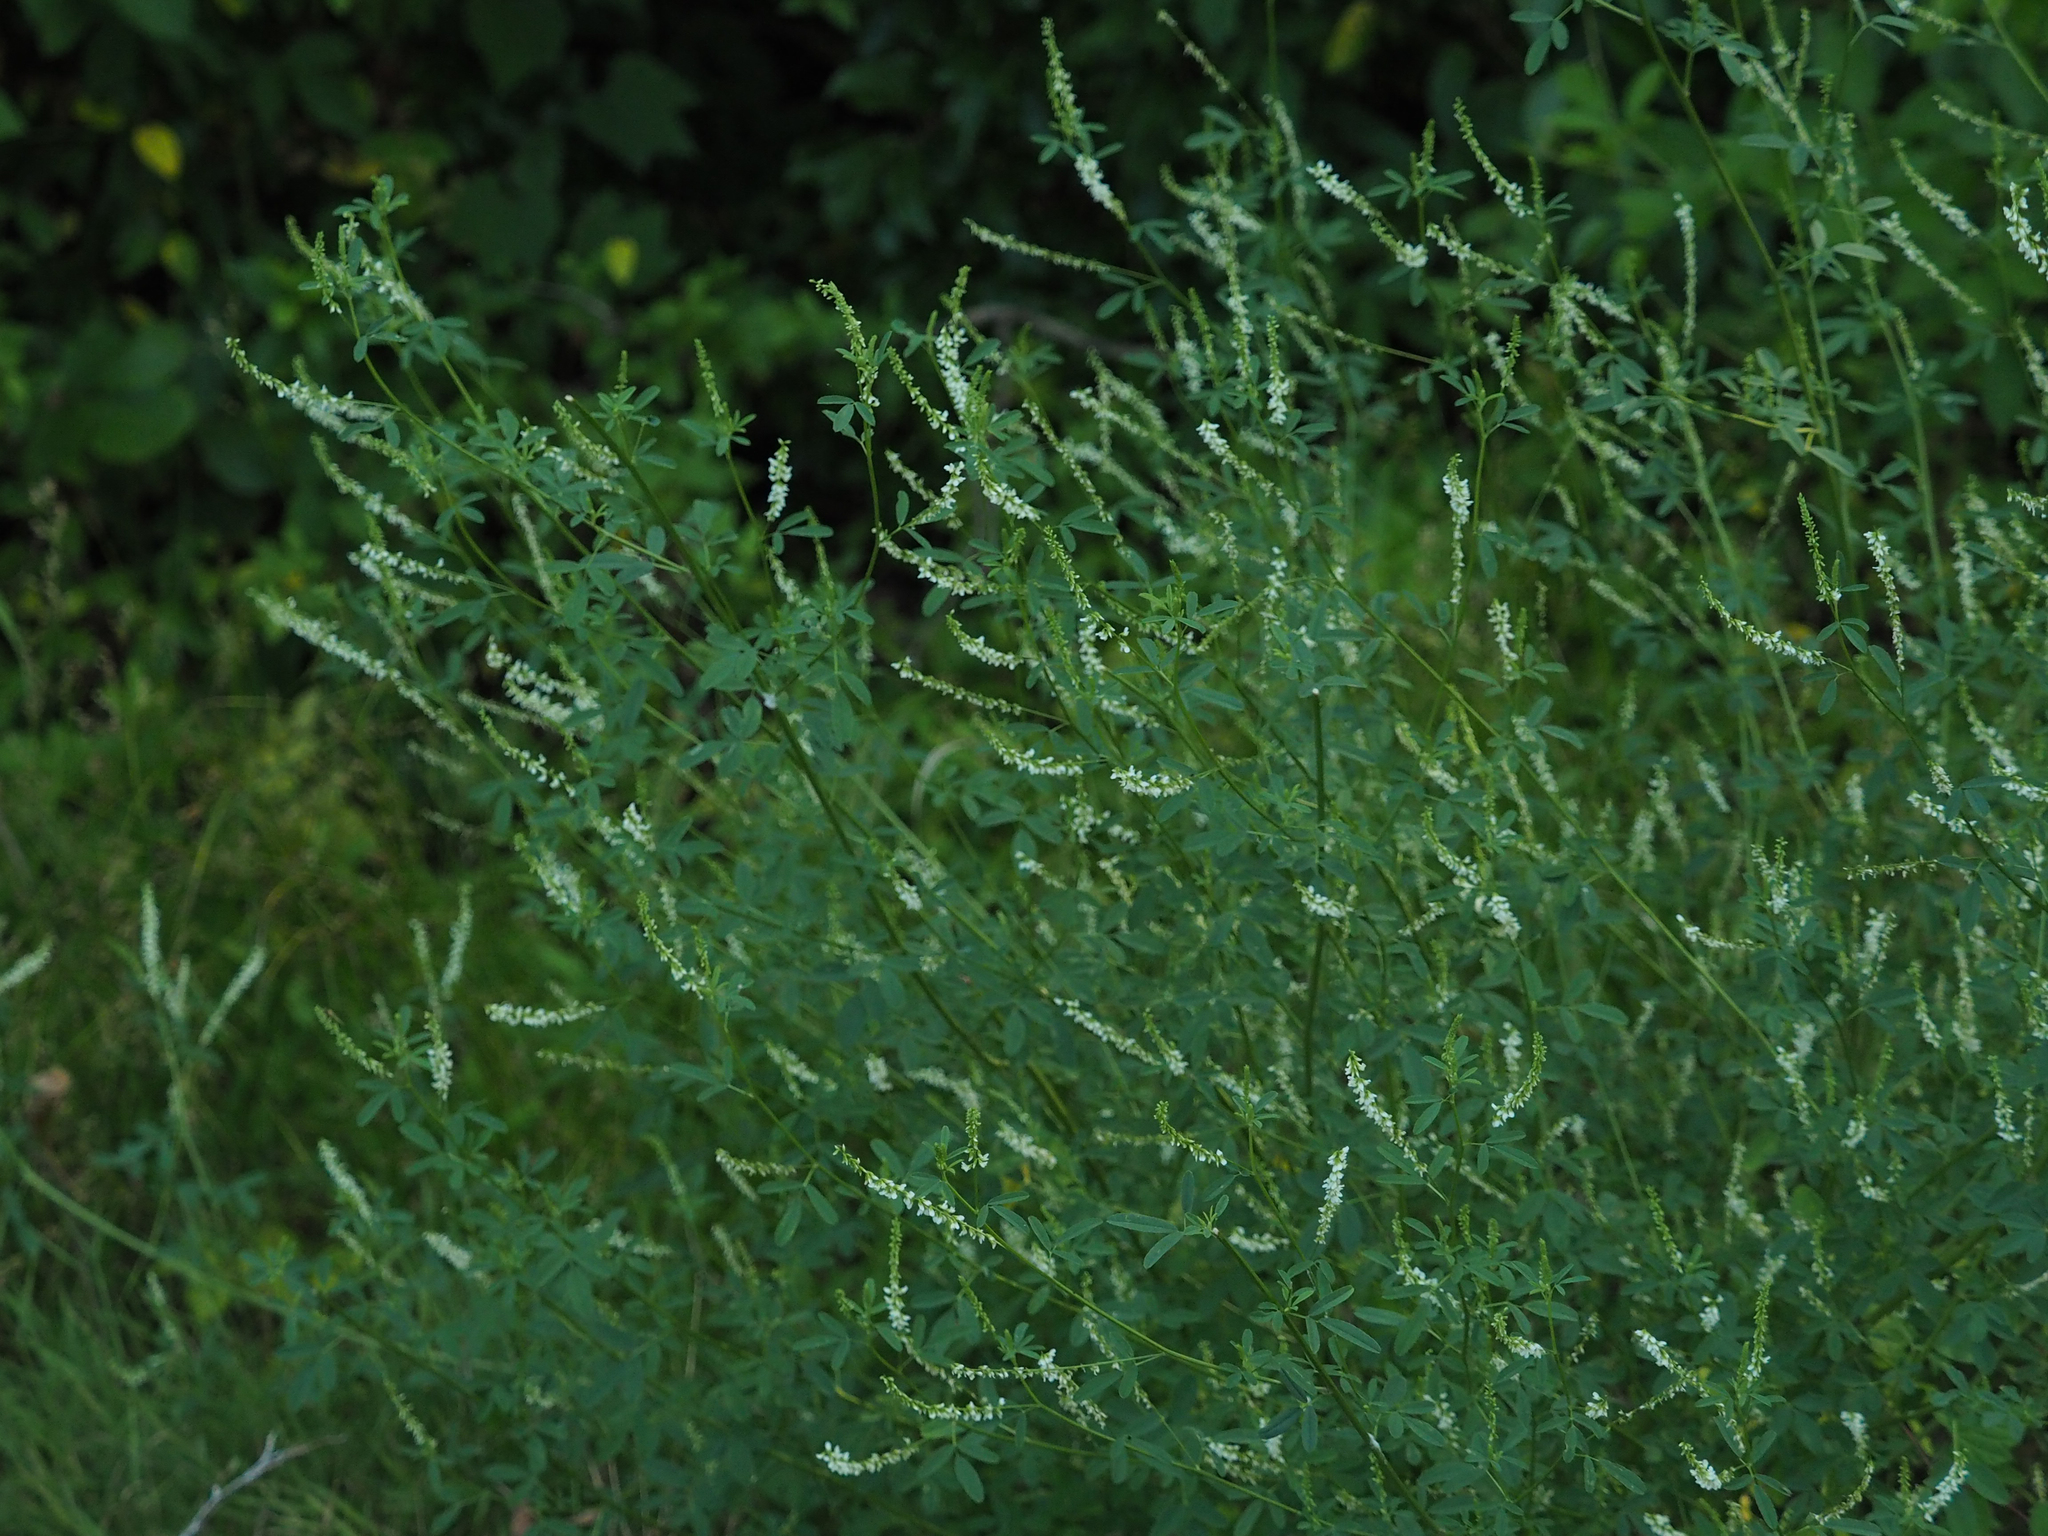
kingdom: Plantae
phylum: Tracheophyta
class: Magnoliopsida
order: Fabales
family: Fabaceae
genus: Melilotus
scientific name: Melilotus albus
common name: White melilot
